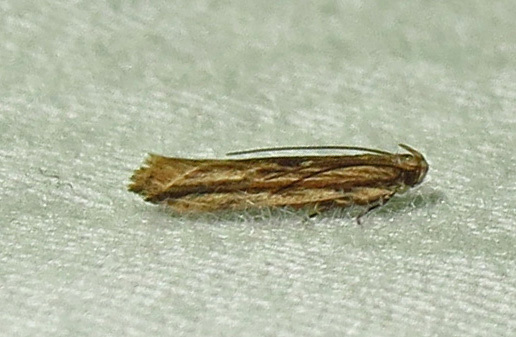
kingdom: Animalia
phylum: Arthropoda
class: Insecta
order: Lepidoptera
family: Gelechiidae
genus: Symmetrischema
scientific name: Symmetrischema striatella
